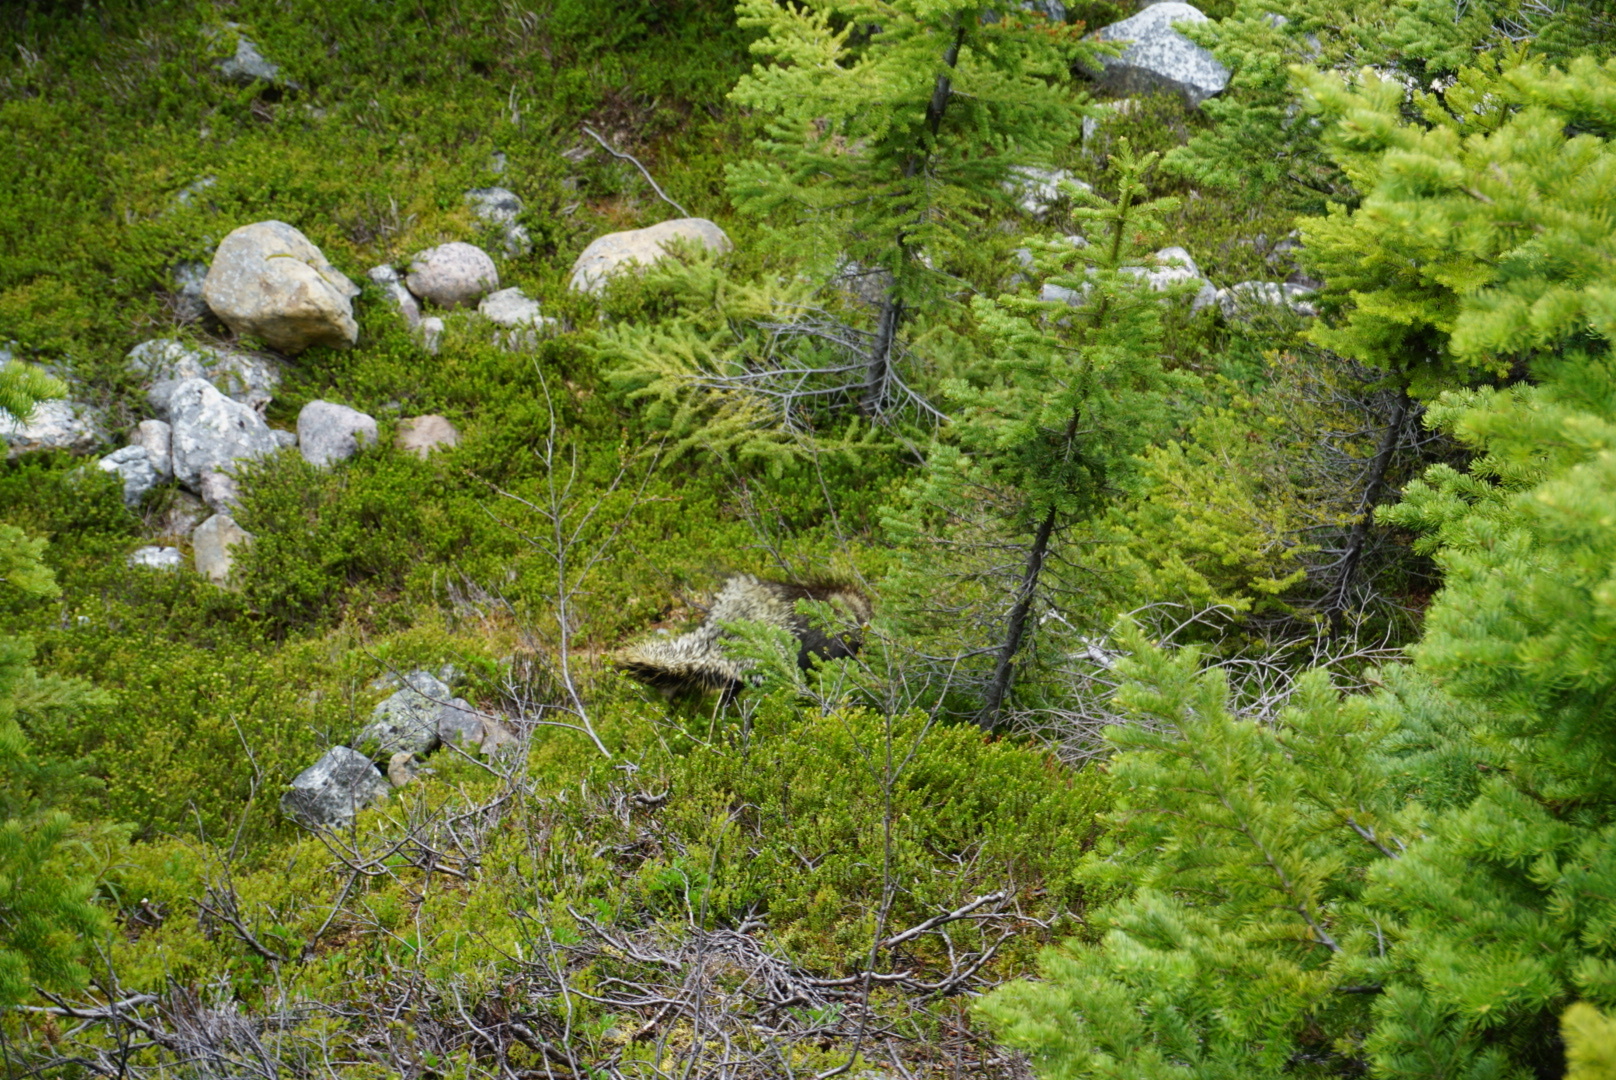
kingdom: Animalia
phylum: Chordata
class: Mammalia
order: Rodentia
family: Erethizontidae
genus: Erethizon
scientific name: Erethizon dorsatus
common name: North american porcupine
